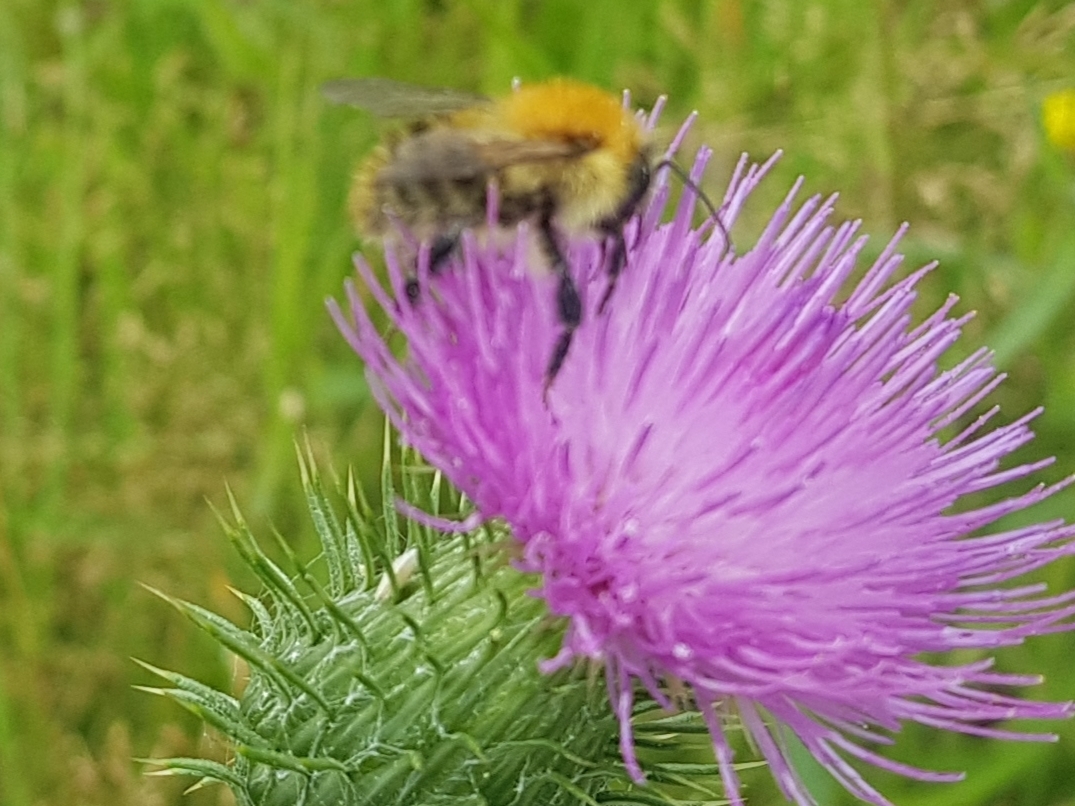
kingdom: Animalia
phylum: Arthropoda
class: Insecta
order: Hymenoptera
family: Apidae
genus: Bombus
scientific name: Bombus pascuorum
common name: Common carder bee
